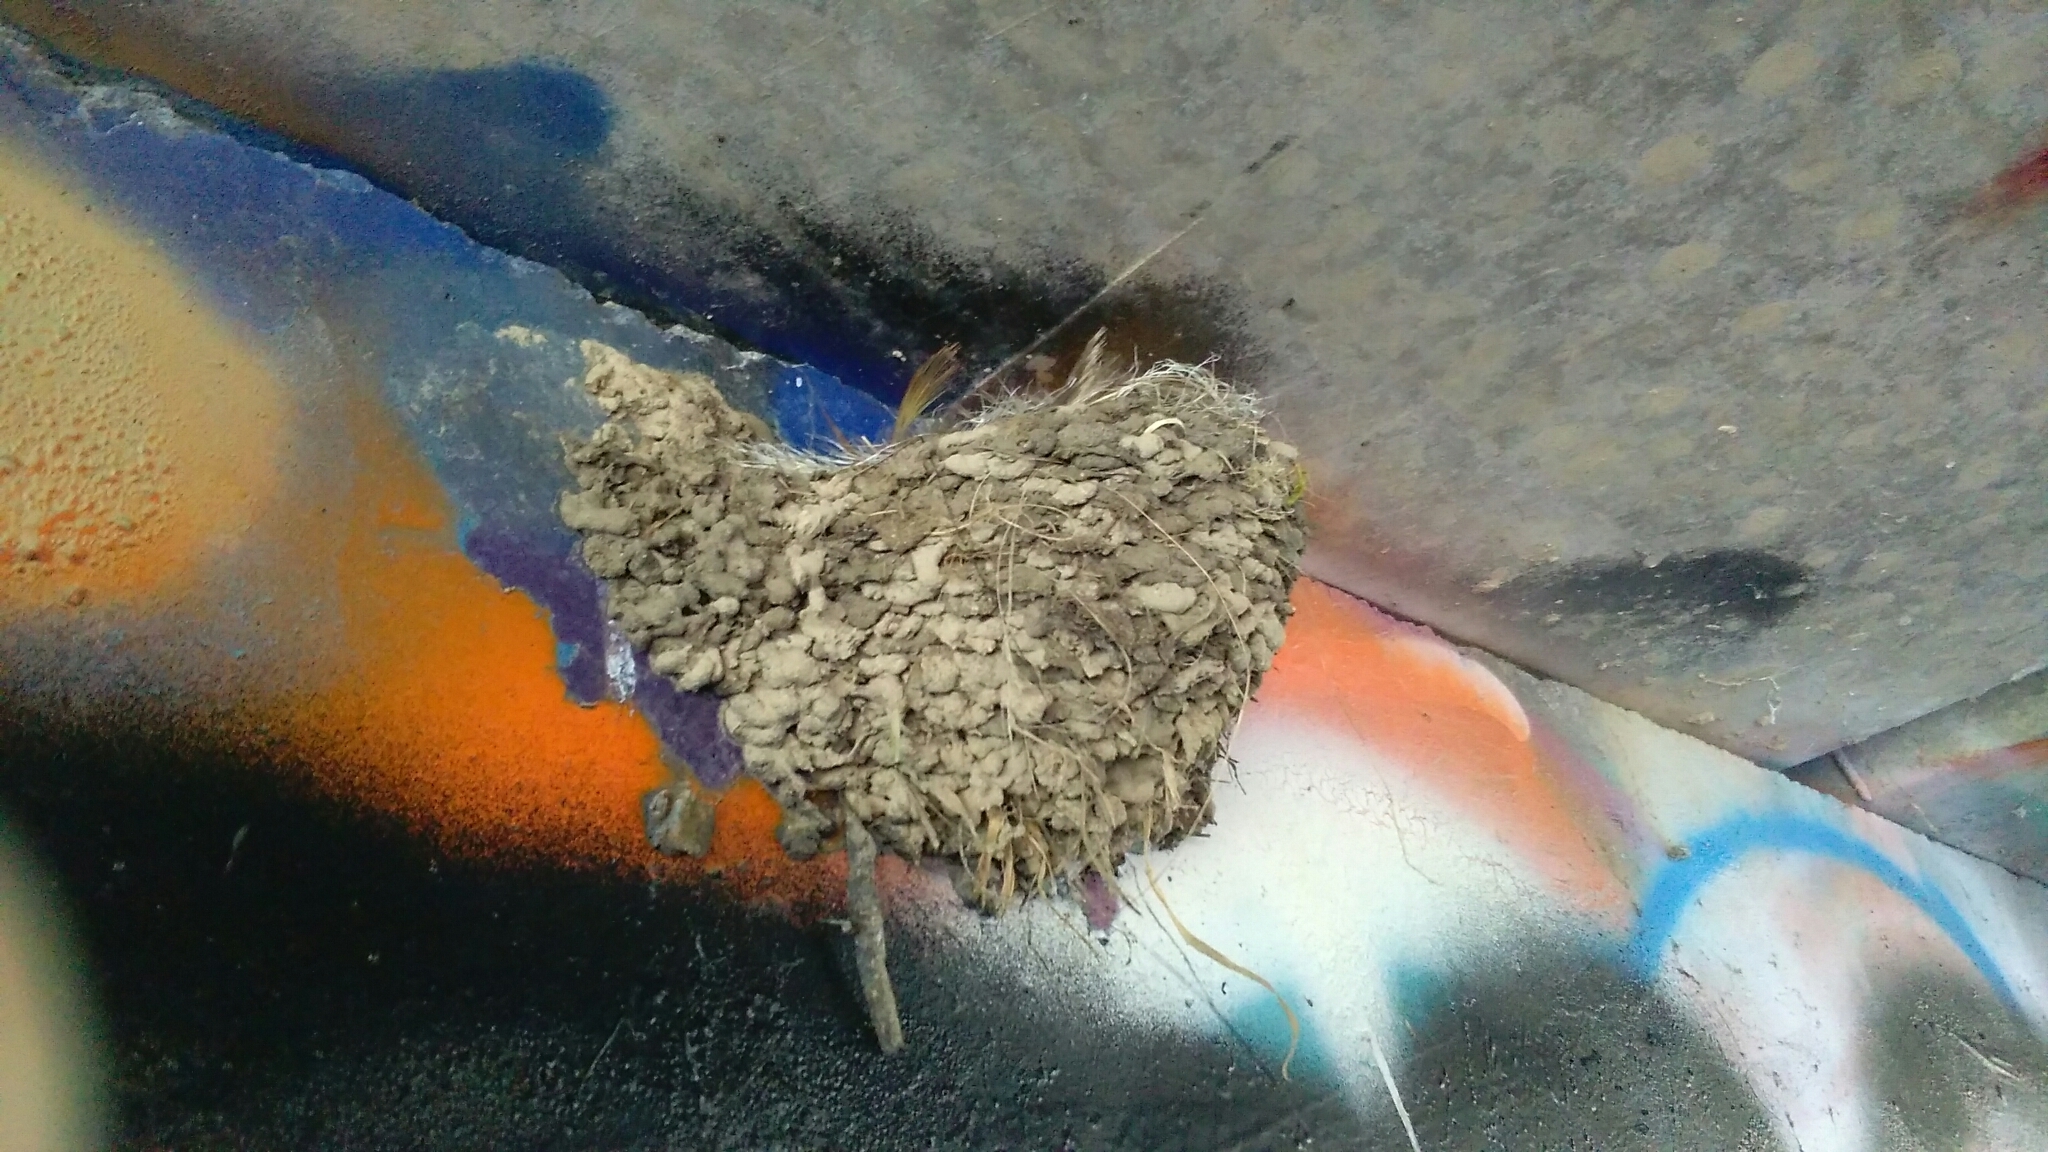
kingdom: Animalia
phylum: Chordata
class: Aves
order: Passeriformes
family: Hirundinidae
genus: Hirundo
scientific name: Hirundo neoxena
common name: Welcome swallow
